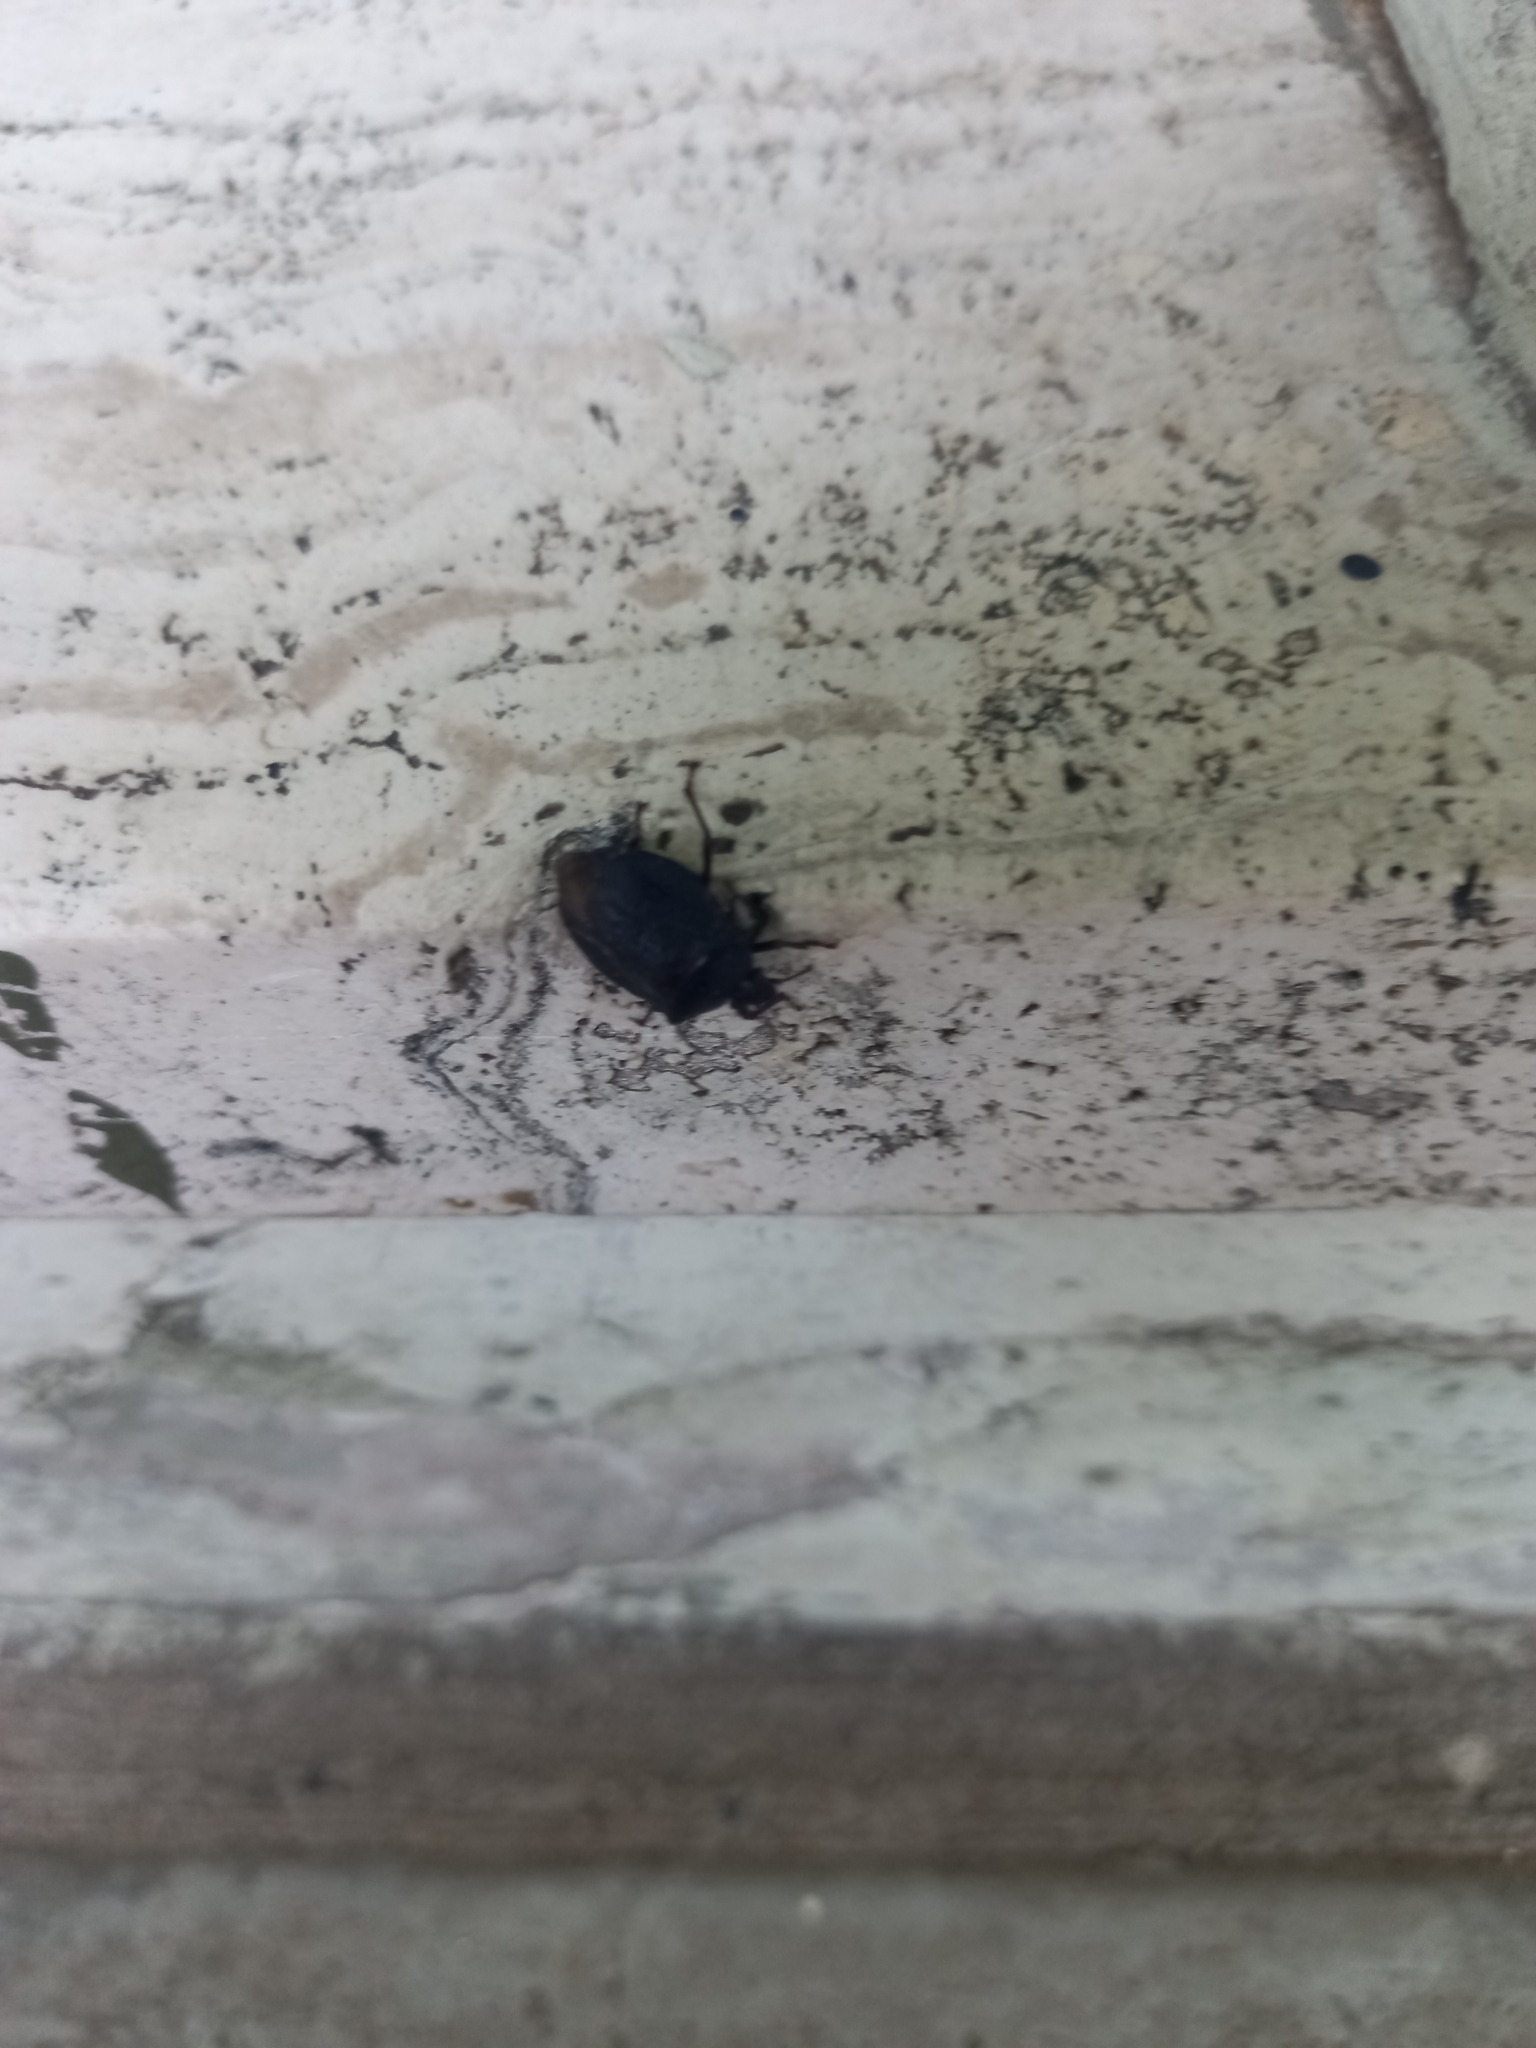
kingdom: Animalia
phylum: Arthropoda
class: Insecta
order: Hemiptera
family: Pentatomidae
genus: Antiteuchus
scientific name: Antiteuchus mixtus
